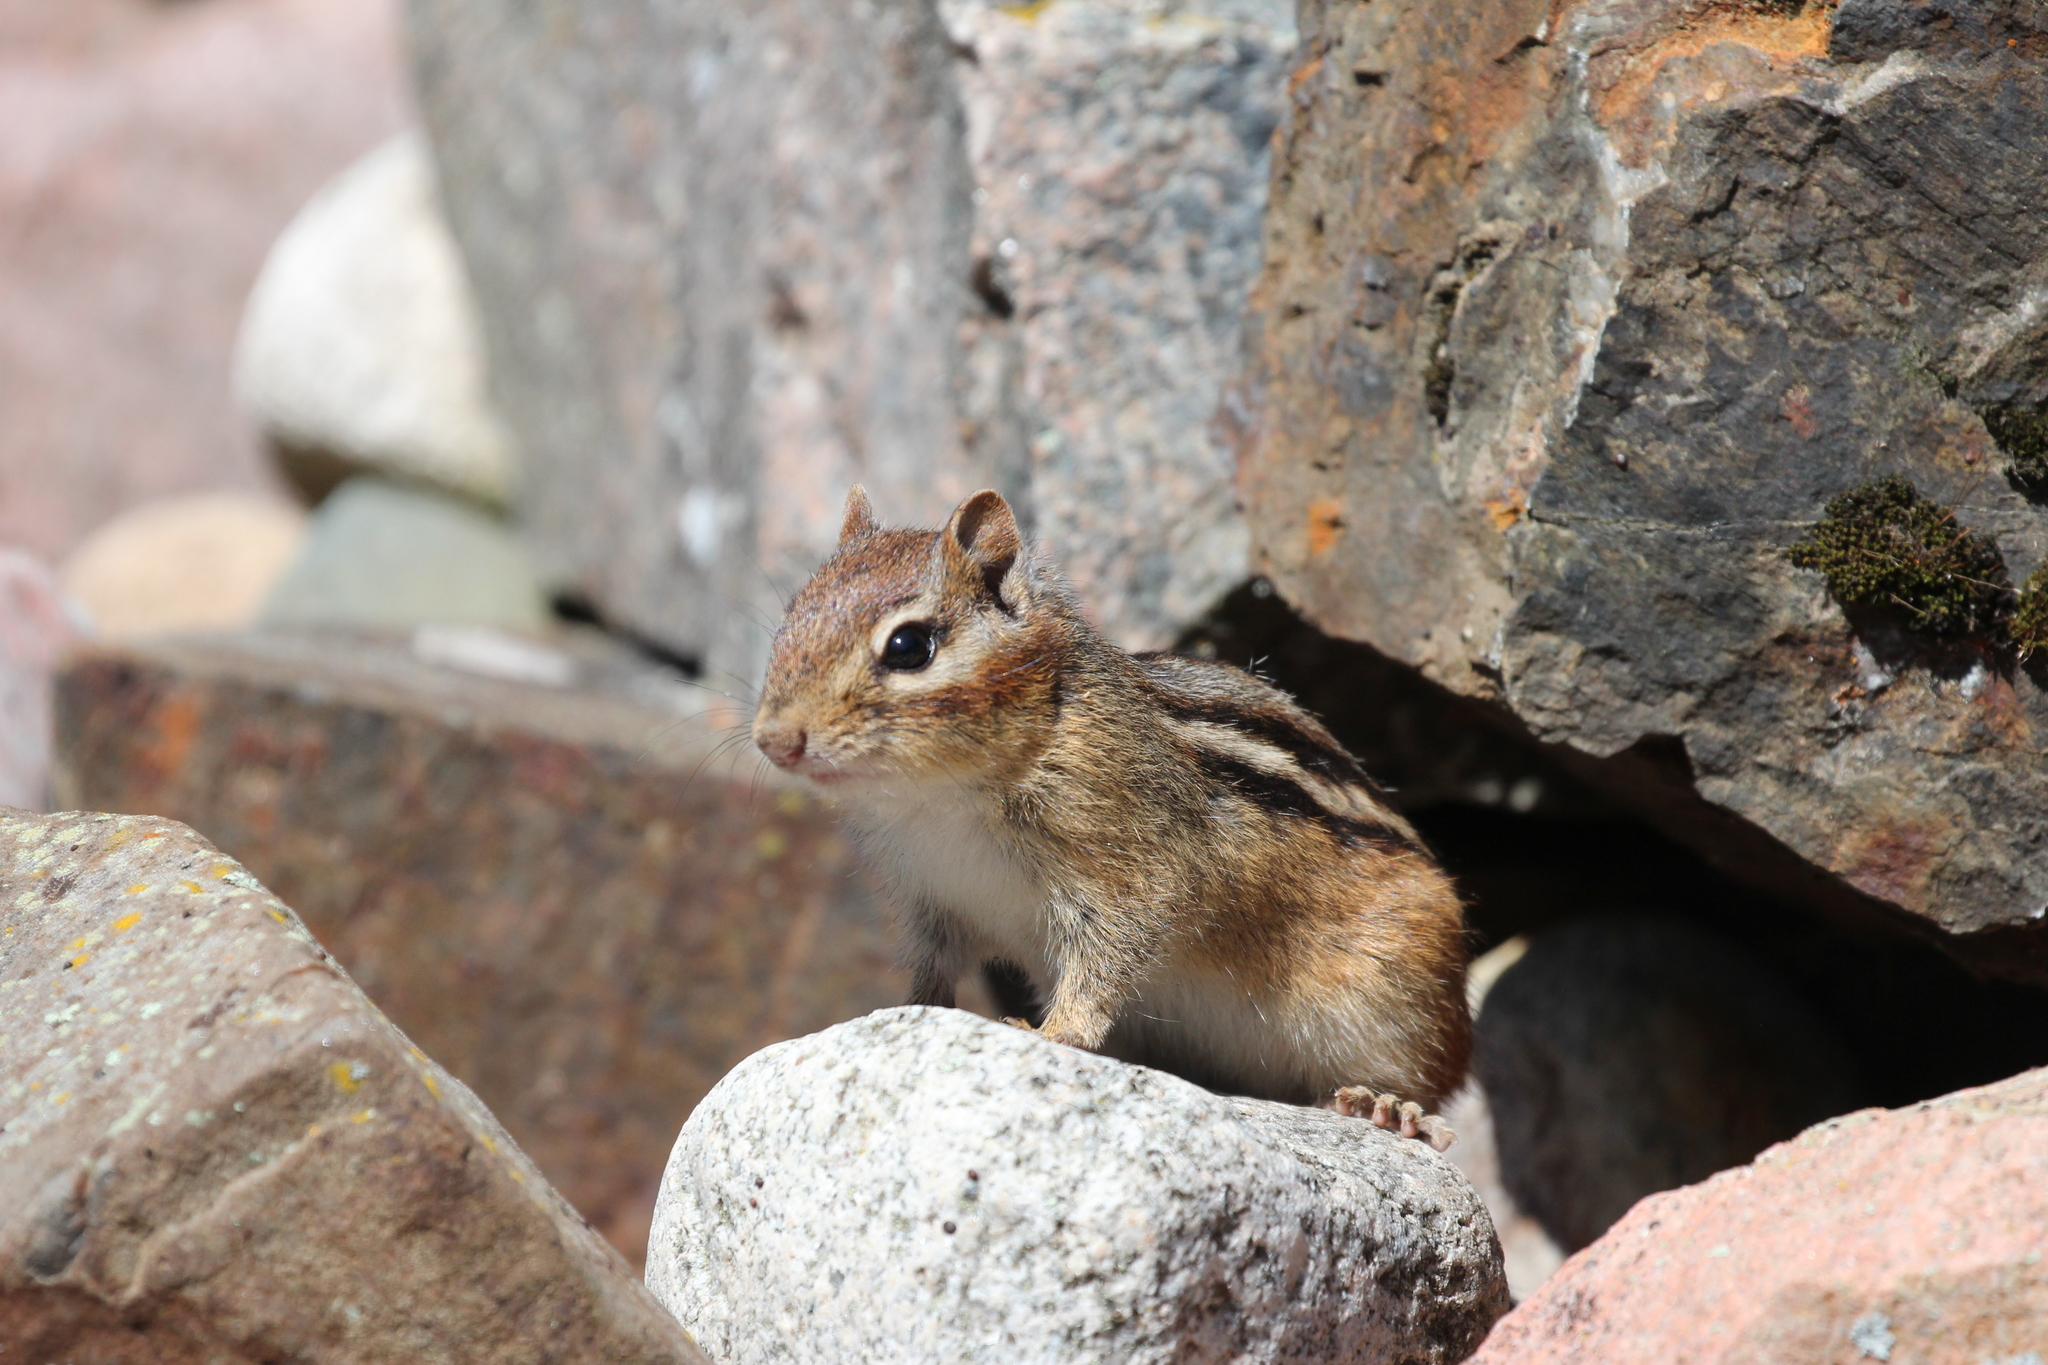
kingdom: Animalia
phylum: Chordata
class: Mammalia
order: Rodentia
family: Sciuridae
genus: Tamias
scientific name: Tamias striatus
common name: Eastern chipmunk
